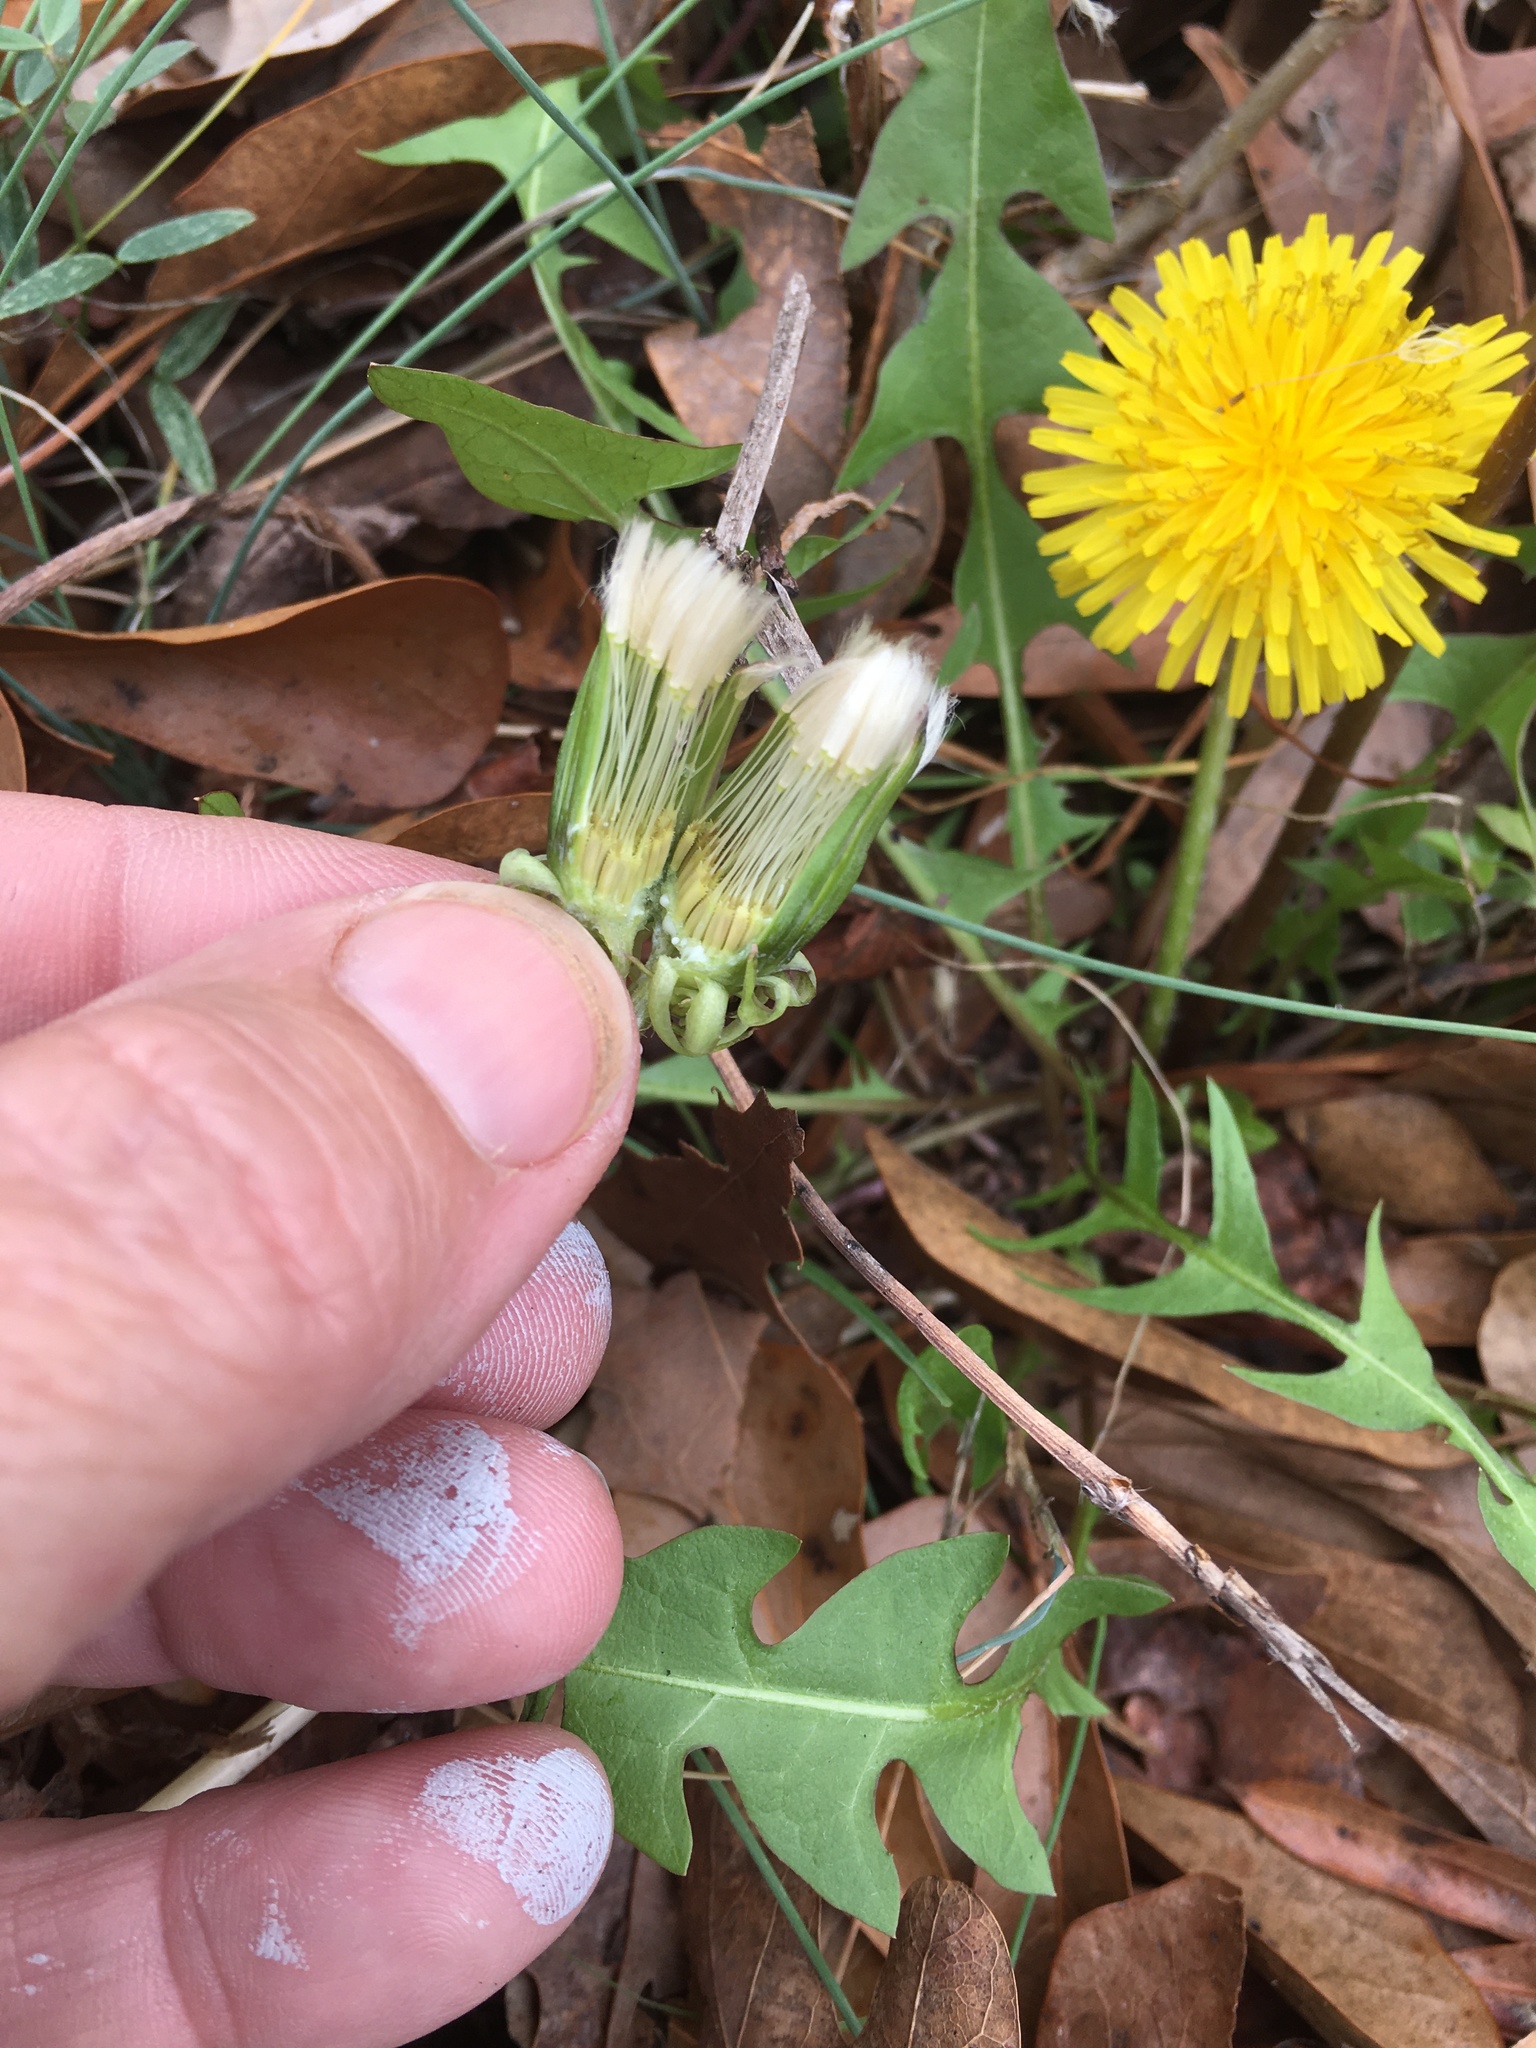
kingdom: Plantae
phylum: Tracheophyta
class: Magnoliopsida
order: Asterales
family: Asteraceae
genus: Taraxacum
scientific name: Taraxacum officinale
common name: Common dandelion
